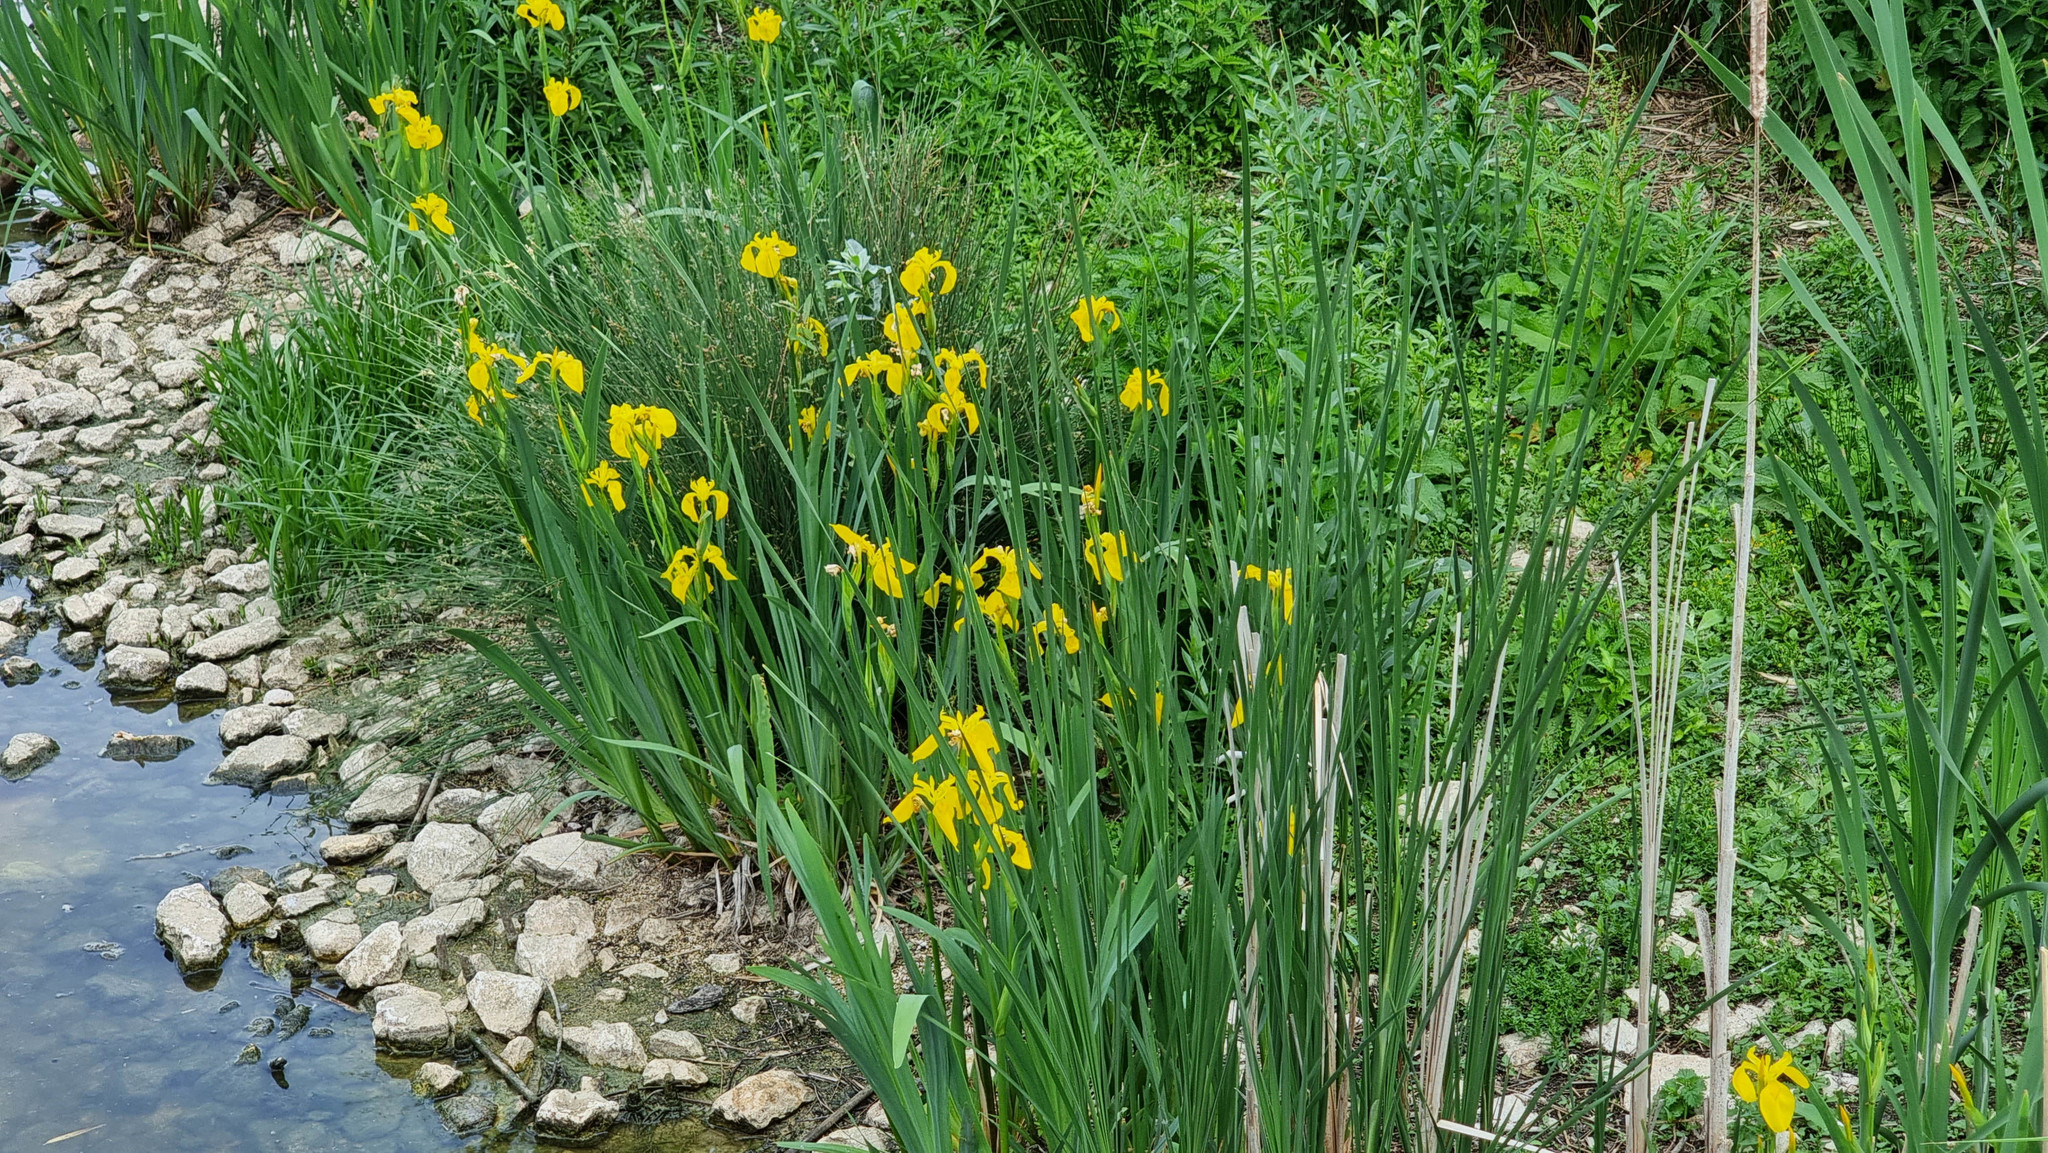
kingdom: Plantae
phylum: Tracheophyta
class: Liliopsida
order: Asparagales
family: Iridaceae
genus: Iris
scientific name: Iris pseudacorus
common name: Yellow flag
